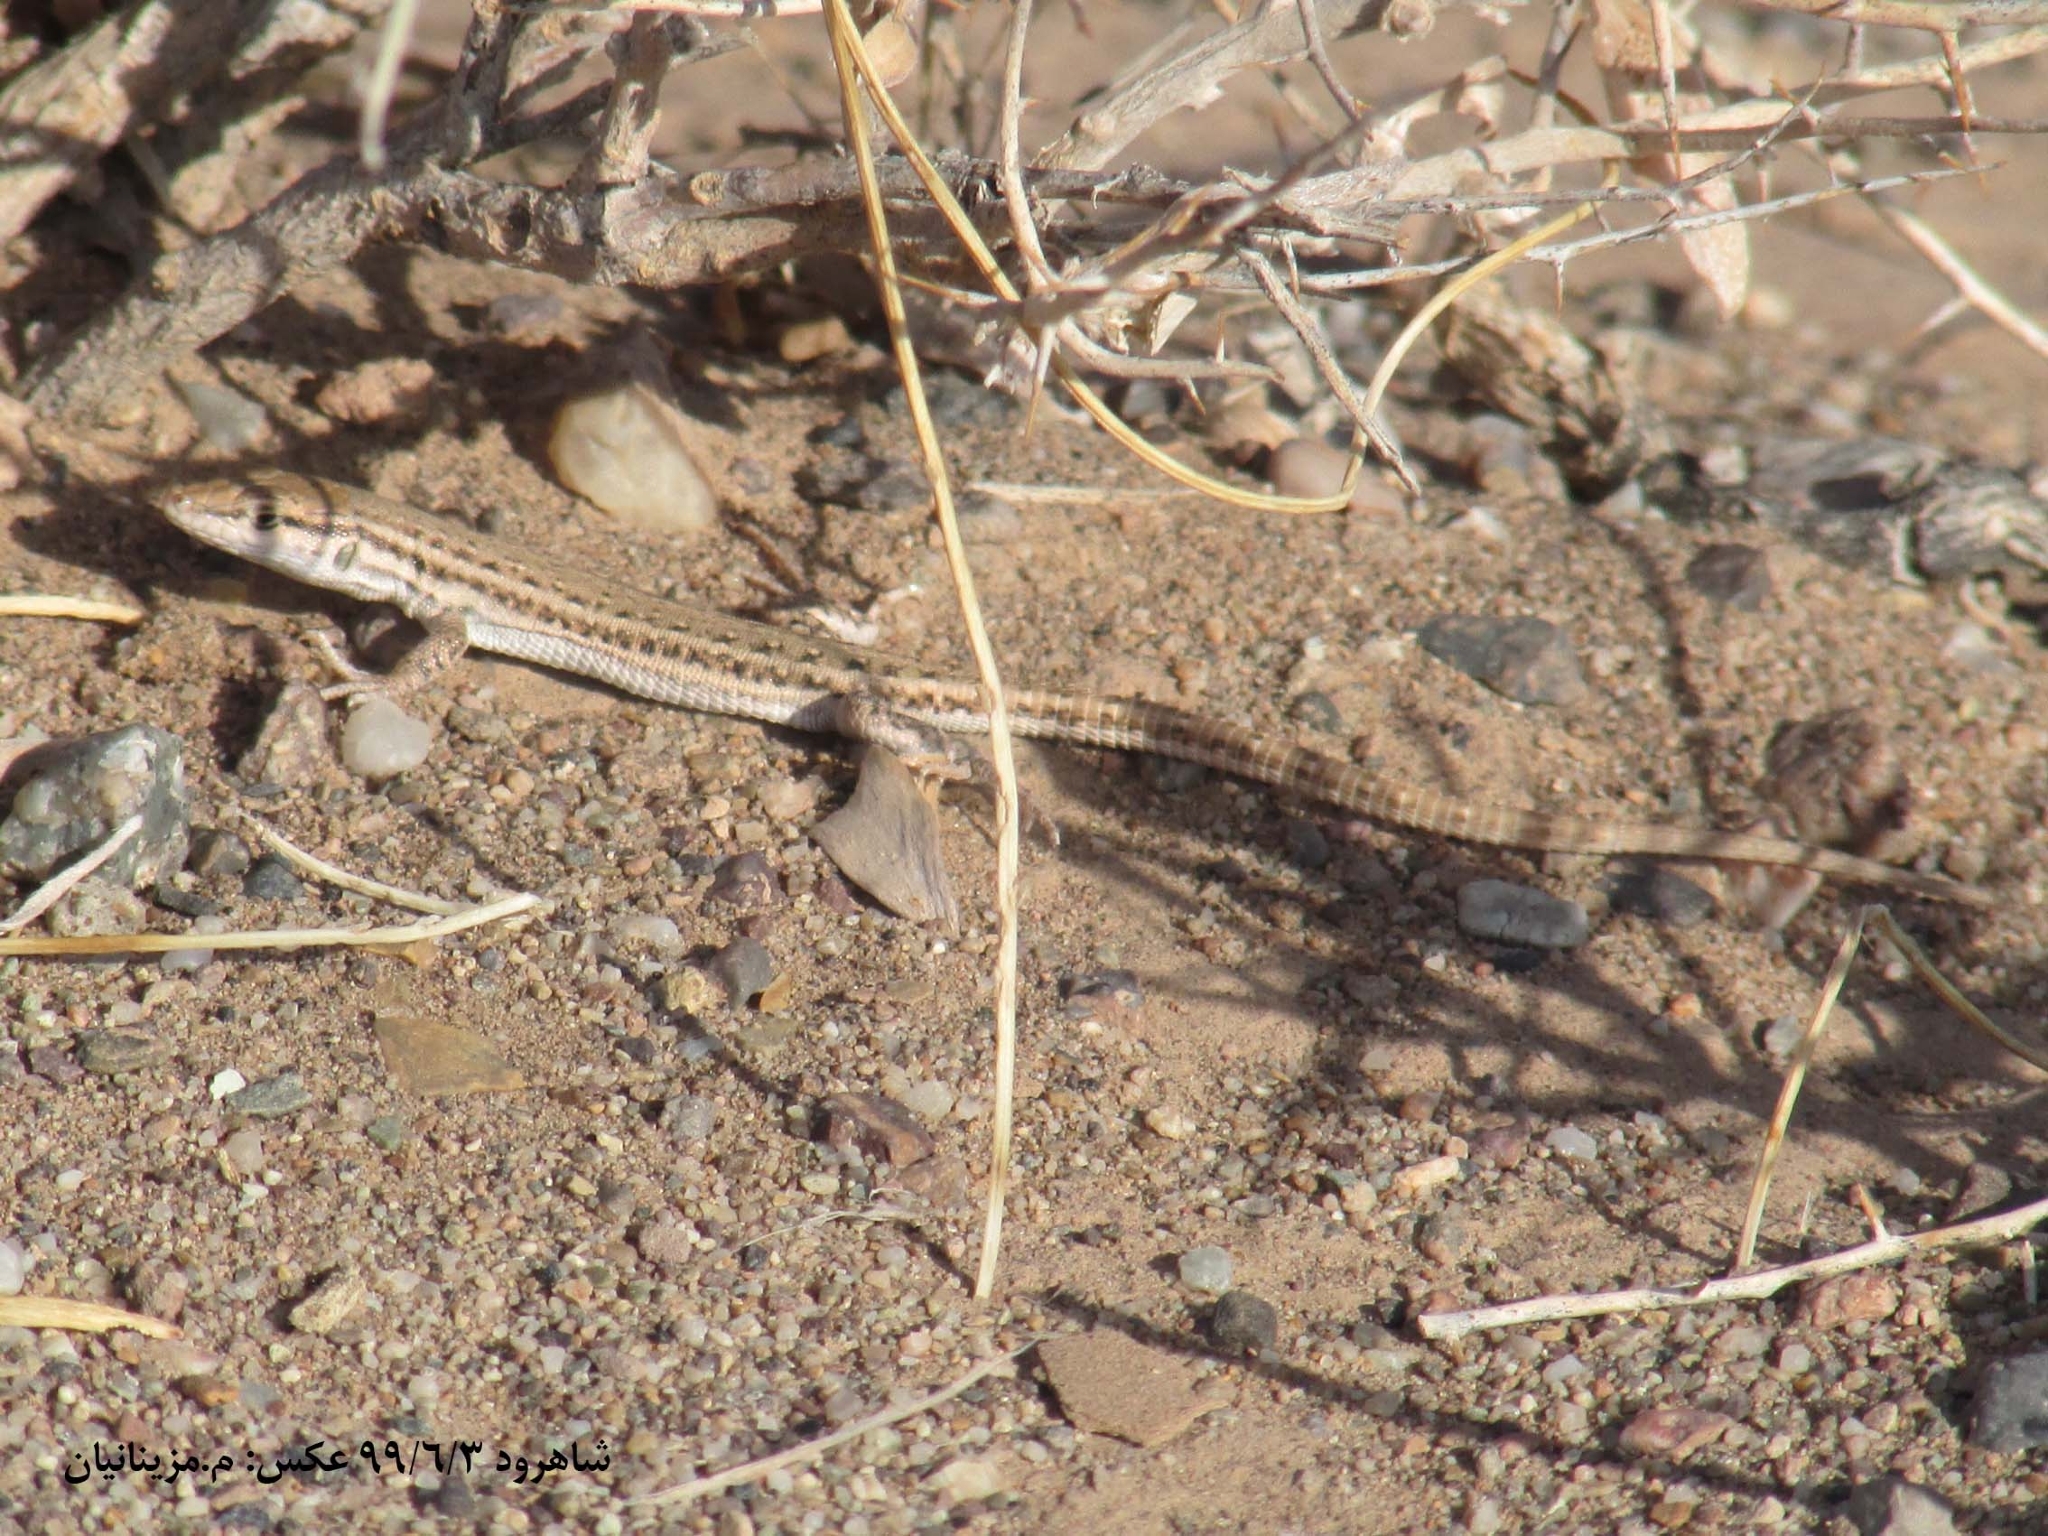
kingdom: Animalia
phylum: Chordata
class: Squamata
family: Lacertidae
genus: Mesalina
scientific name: Mesalina watsonana
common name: Persian long-tailed desert lizard
